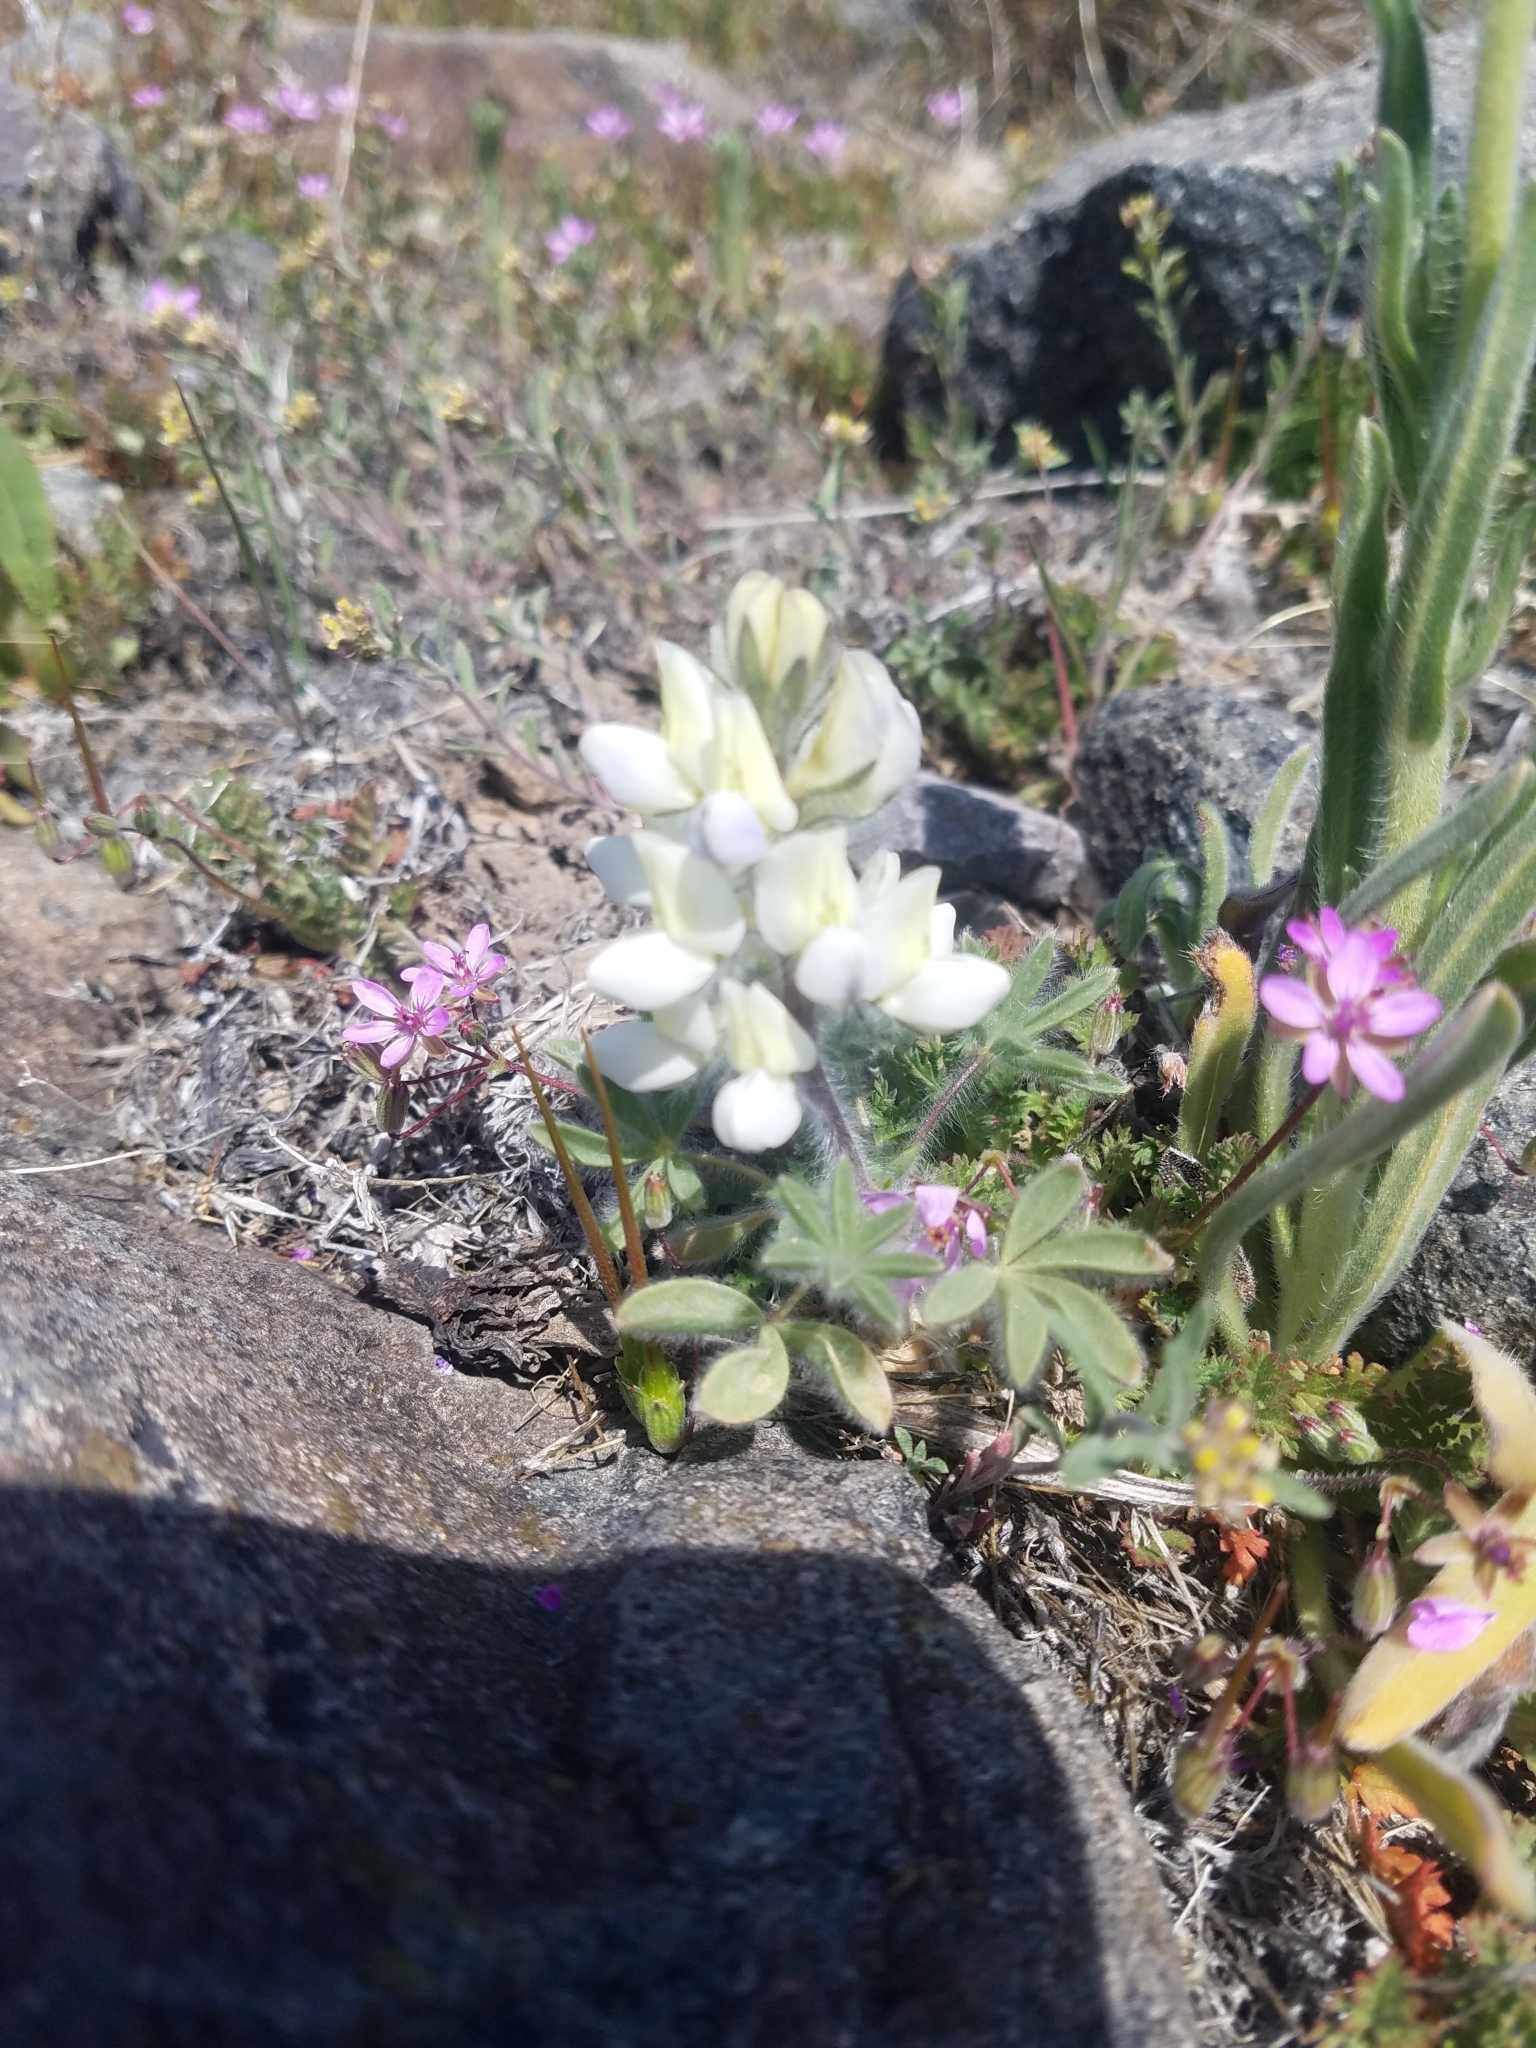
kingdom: Plantae
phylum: Tracheophyta
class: Magnoliopsida
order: Fabales
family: Fabaceae
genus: Lupinus
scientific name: Lupinus malacophyllus
